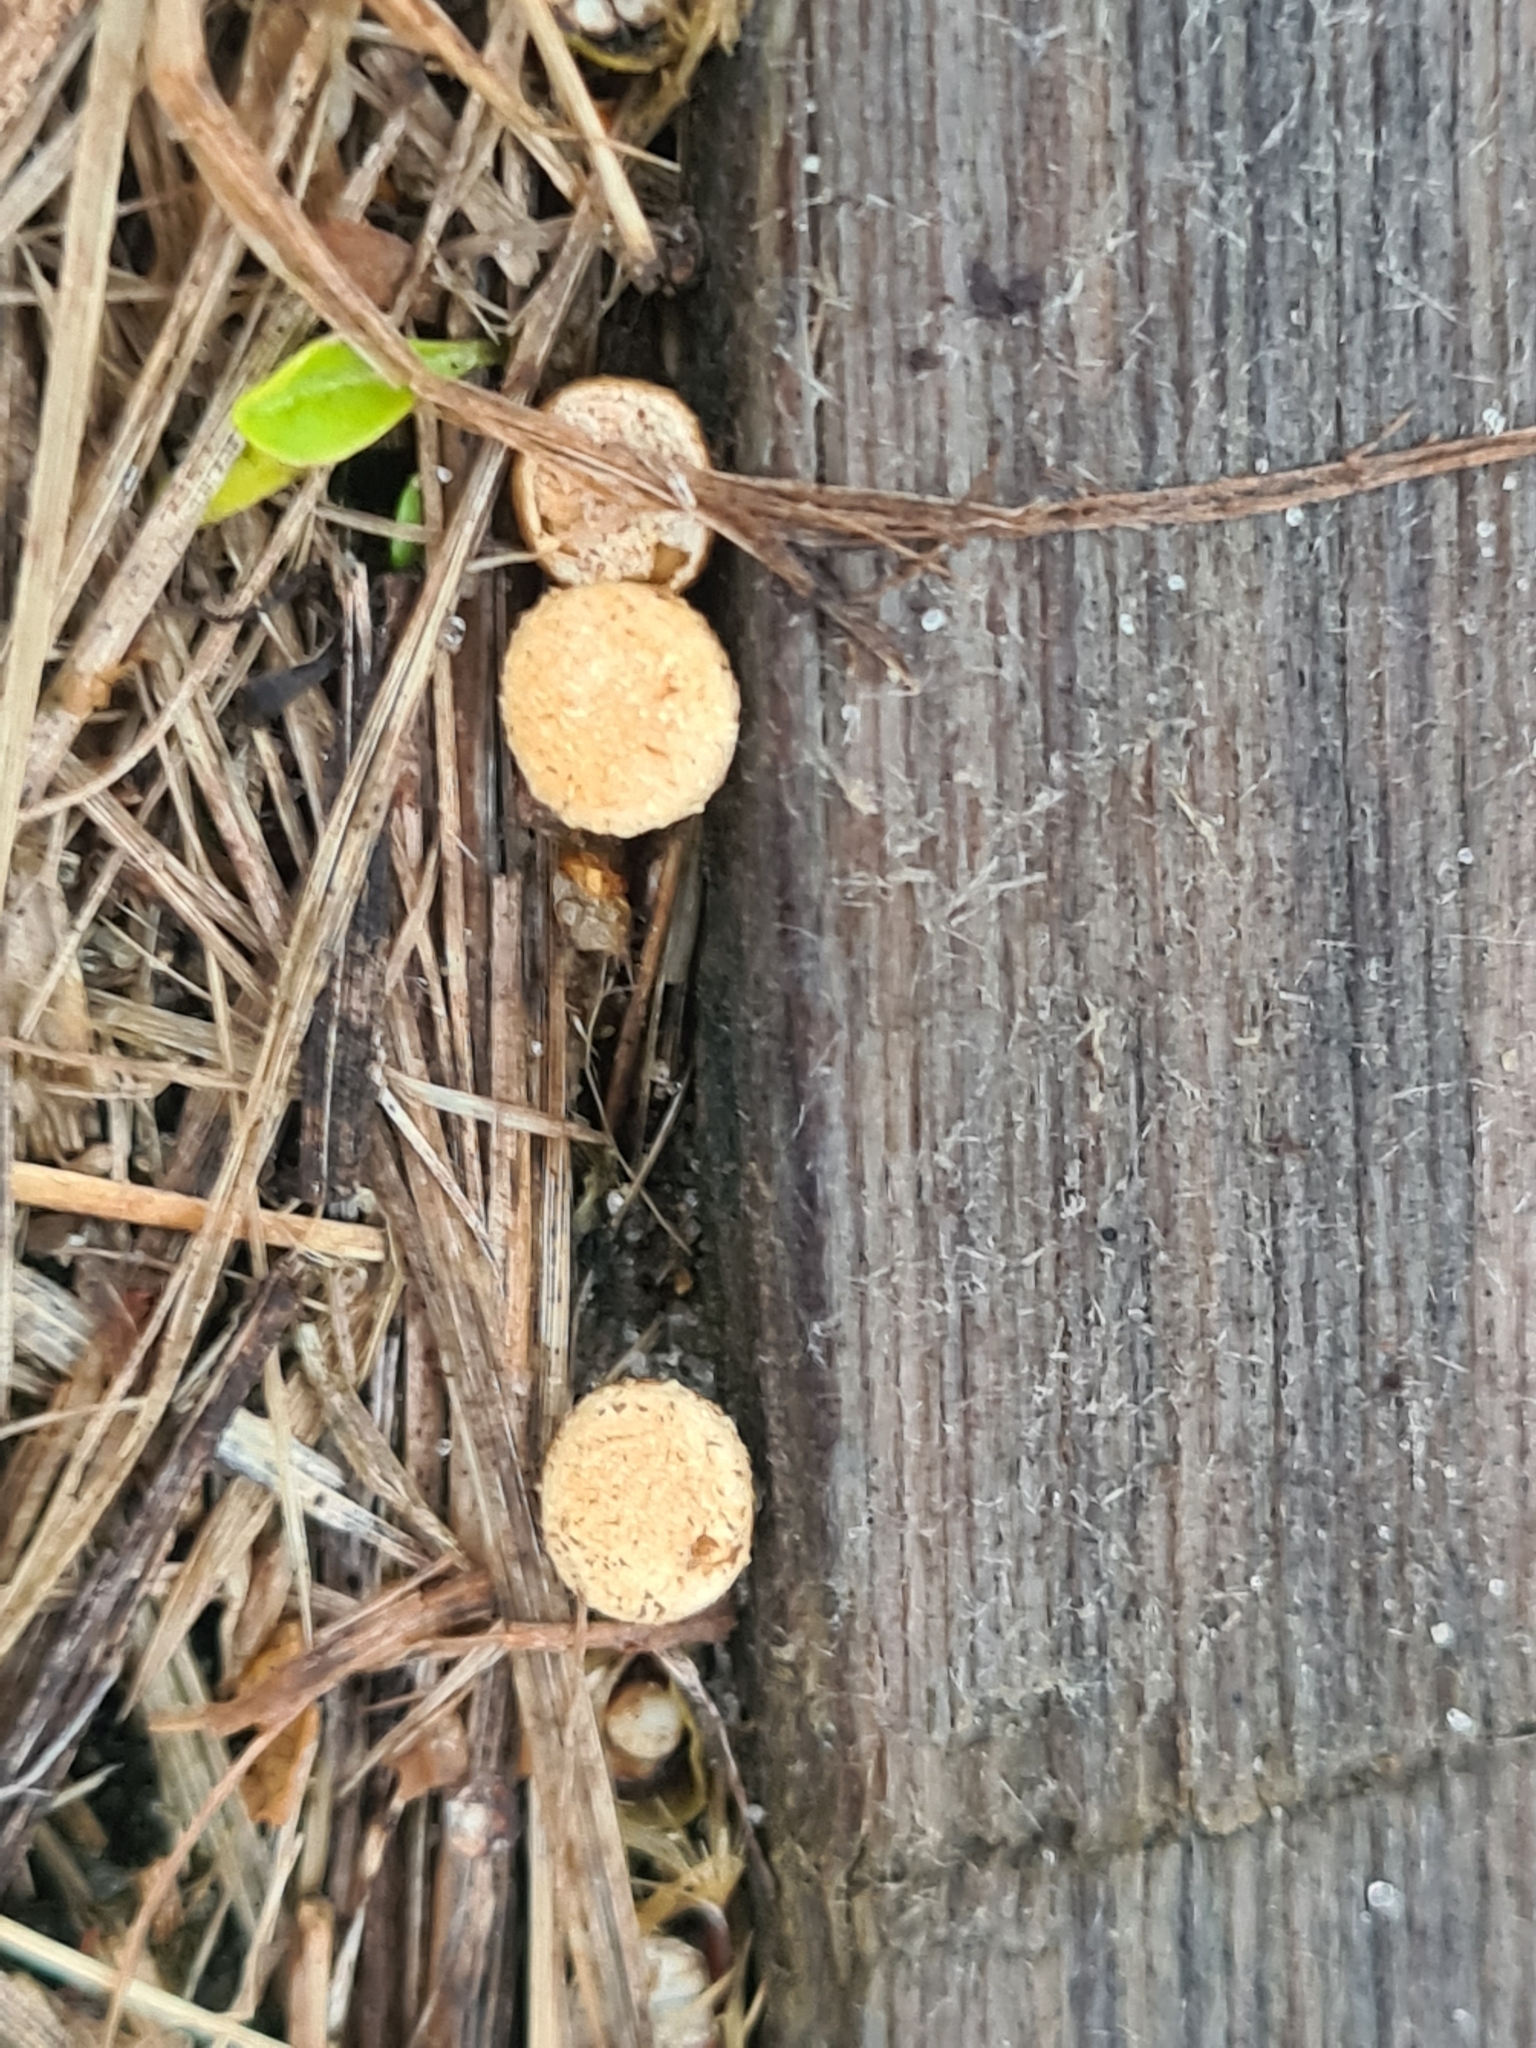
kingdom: Fungi
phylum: Basidiomycota
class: Agaricomycetes
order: Agaricales
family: Nidulariaceae
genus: Crucibulum
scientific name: Crucibulum laeve
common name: Common bird's nest
